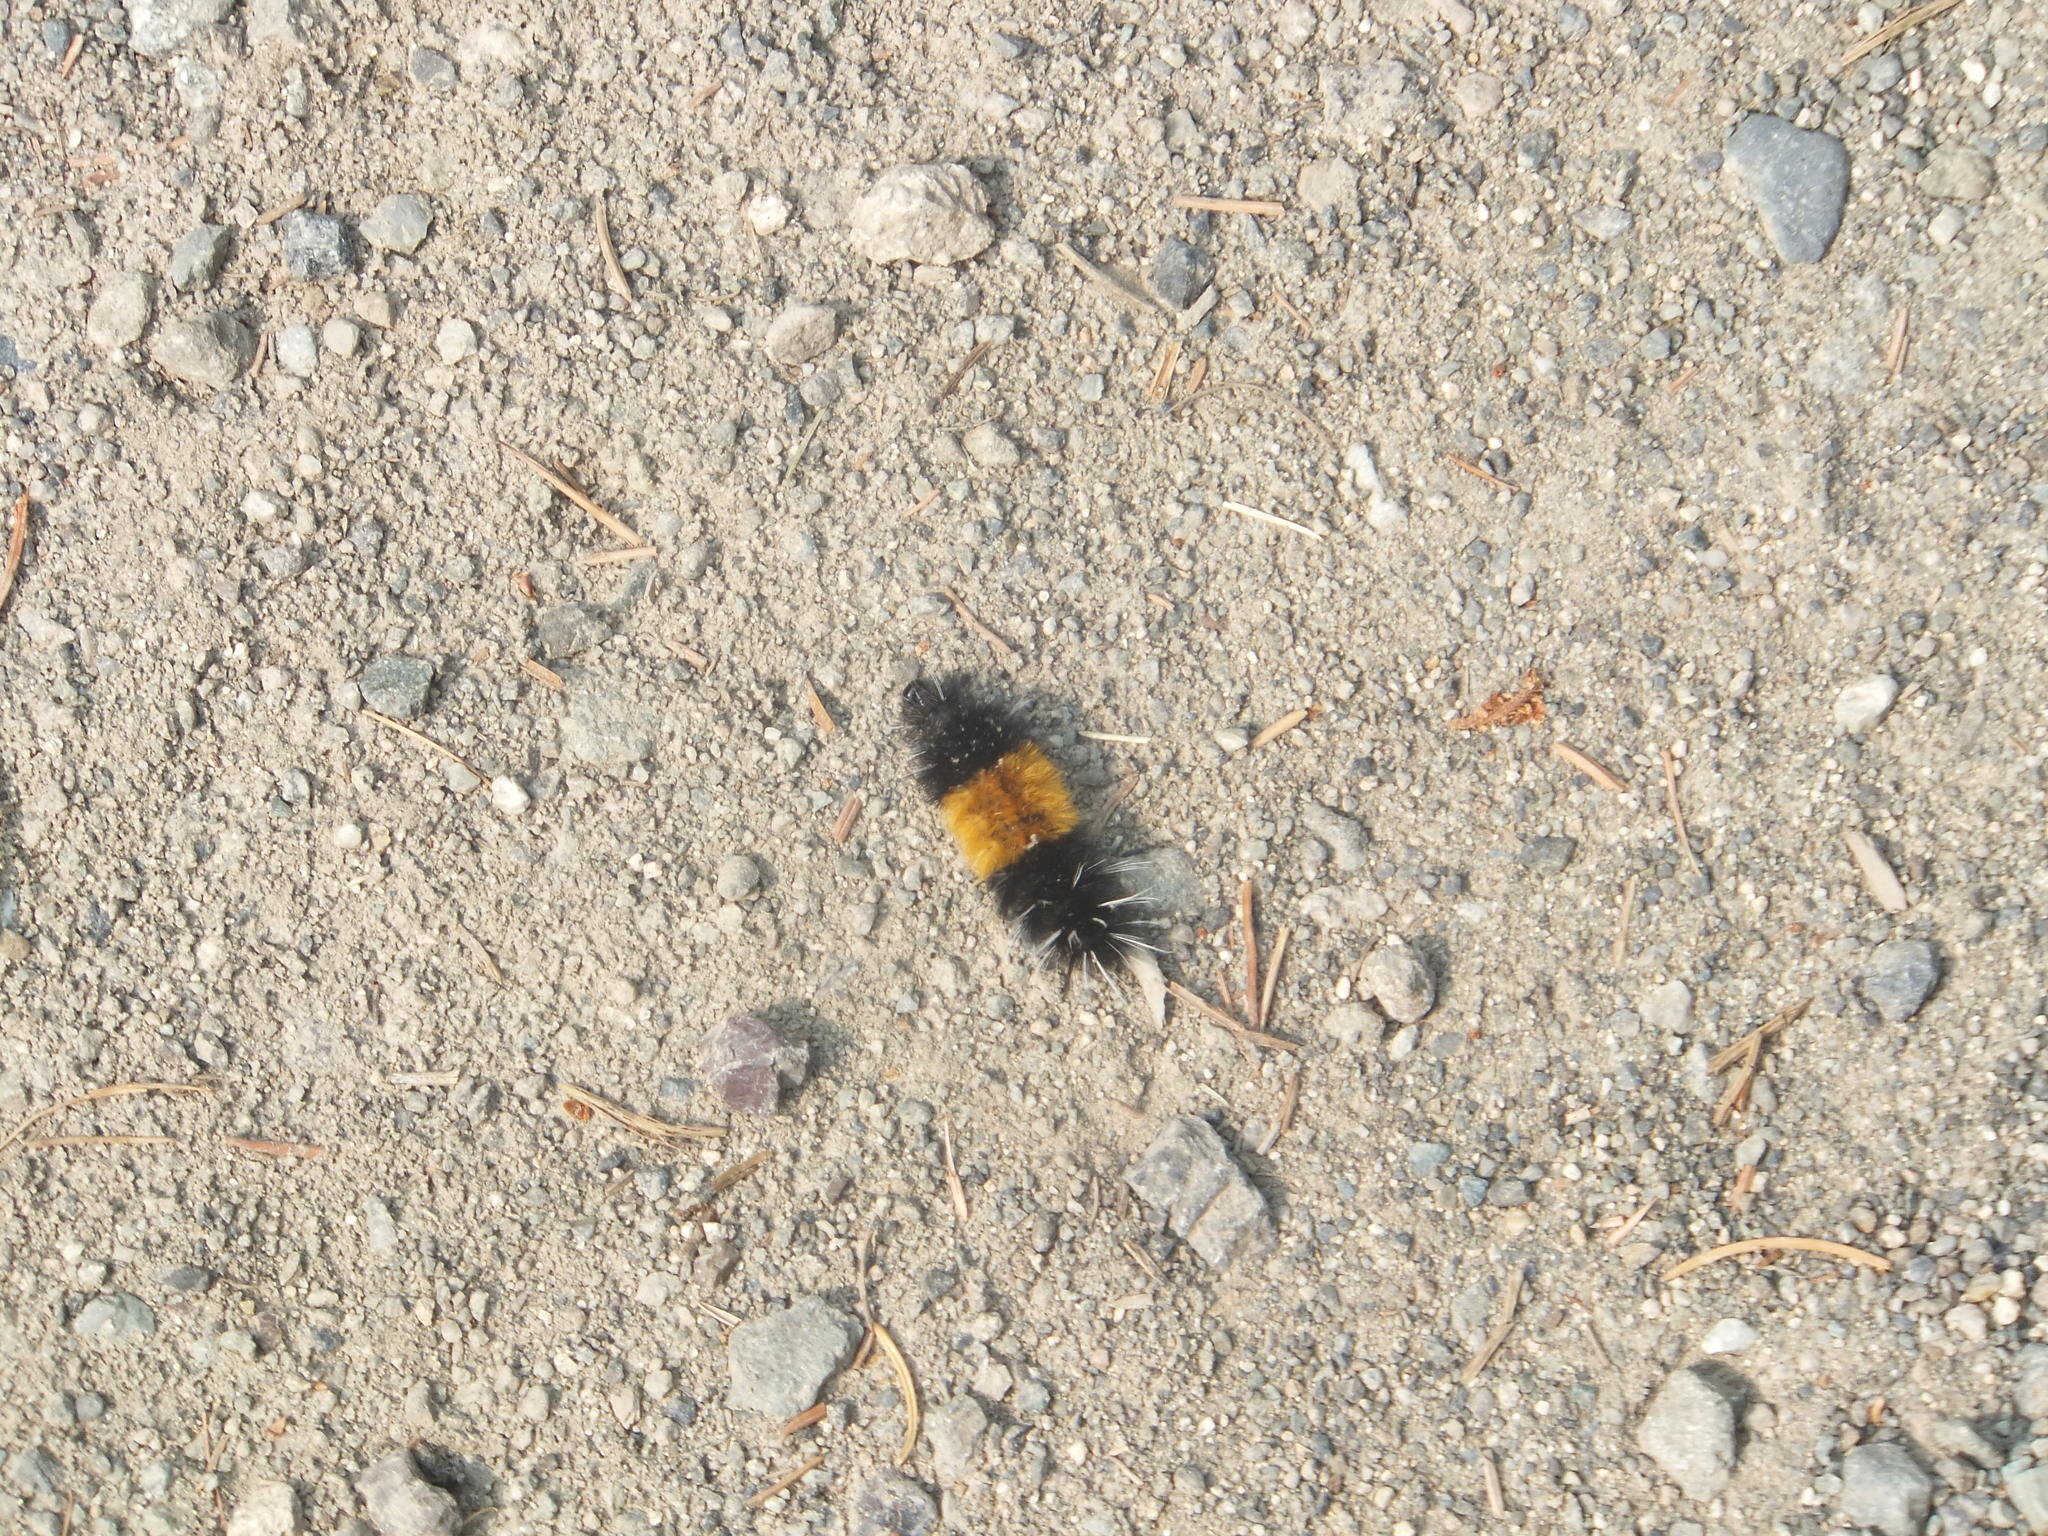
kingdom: Animalia
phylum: Arthropoda
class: Insecta
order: Lepidoptera
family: Erebidae
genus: Lophocampa
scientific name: Lophocampa maculata
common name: Spotted tussock moth
